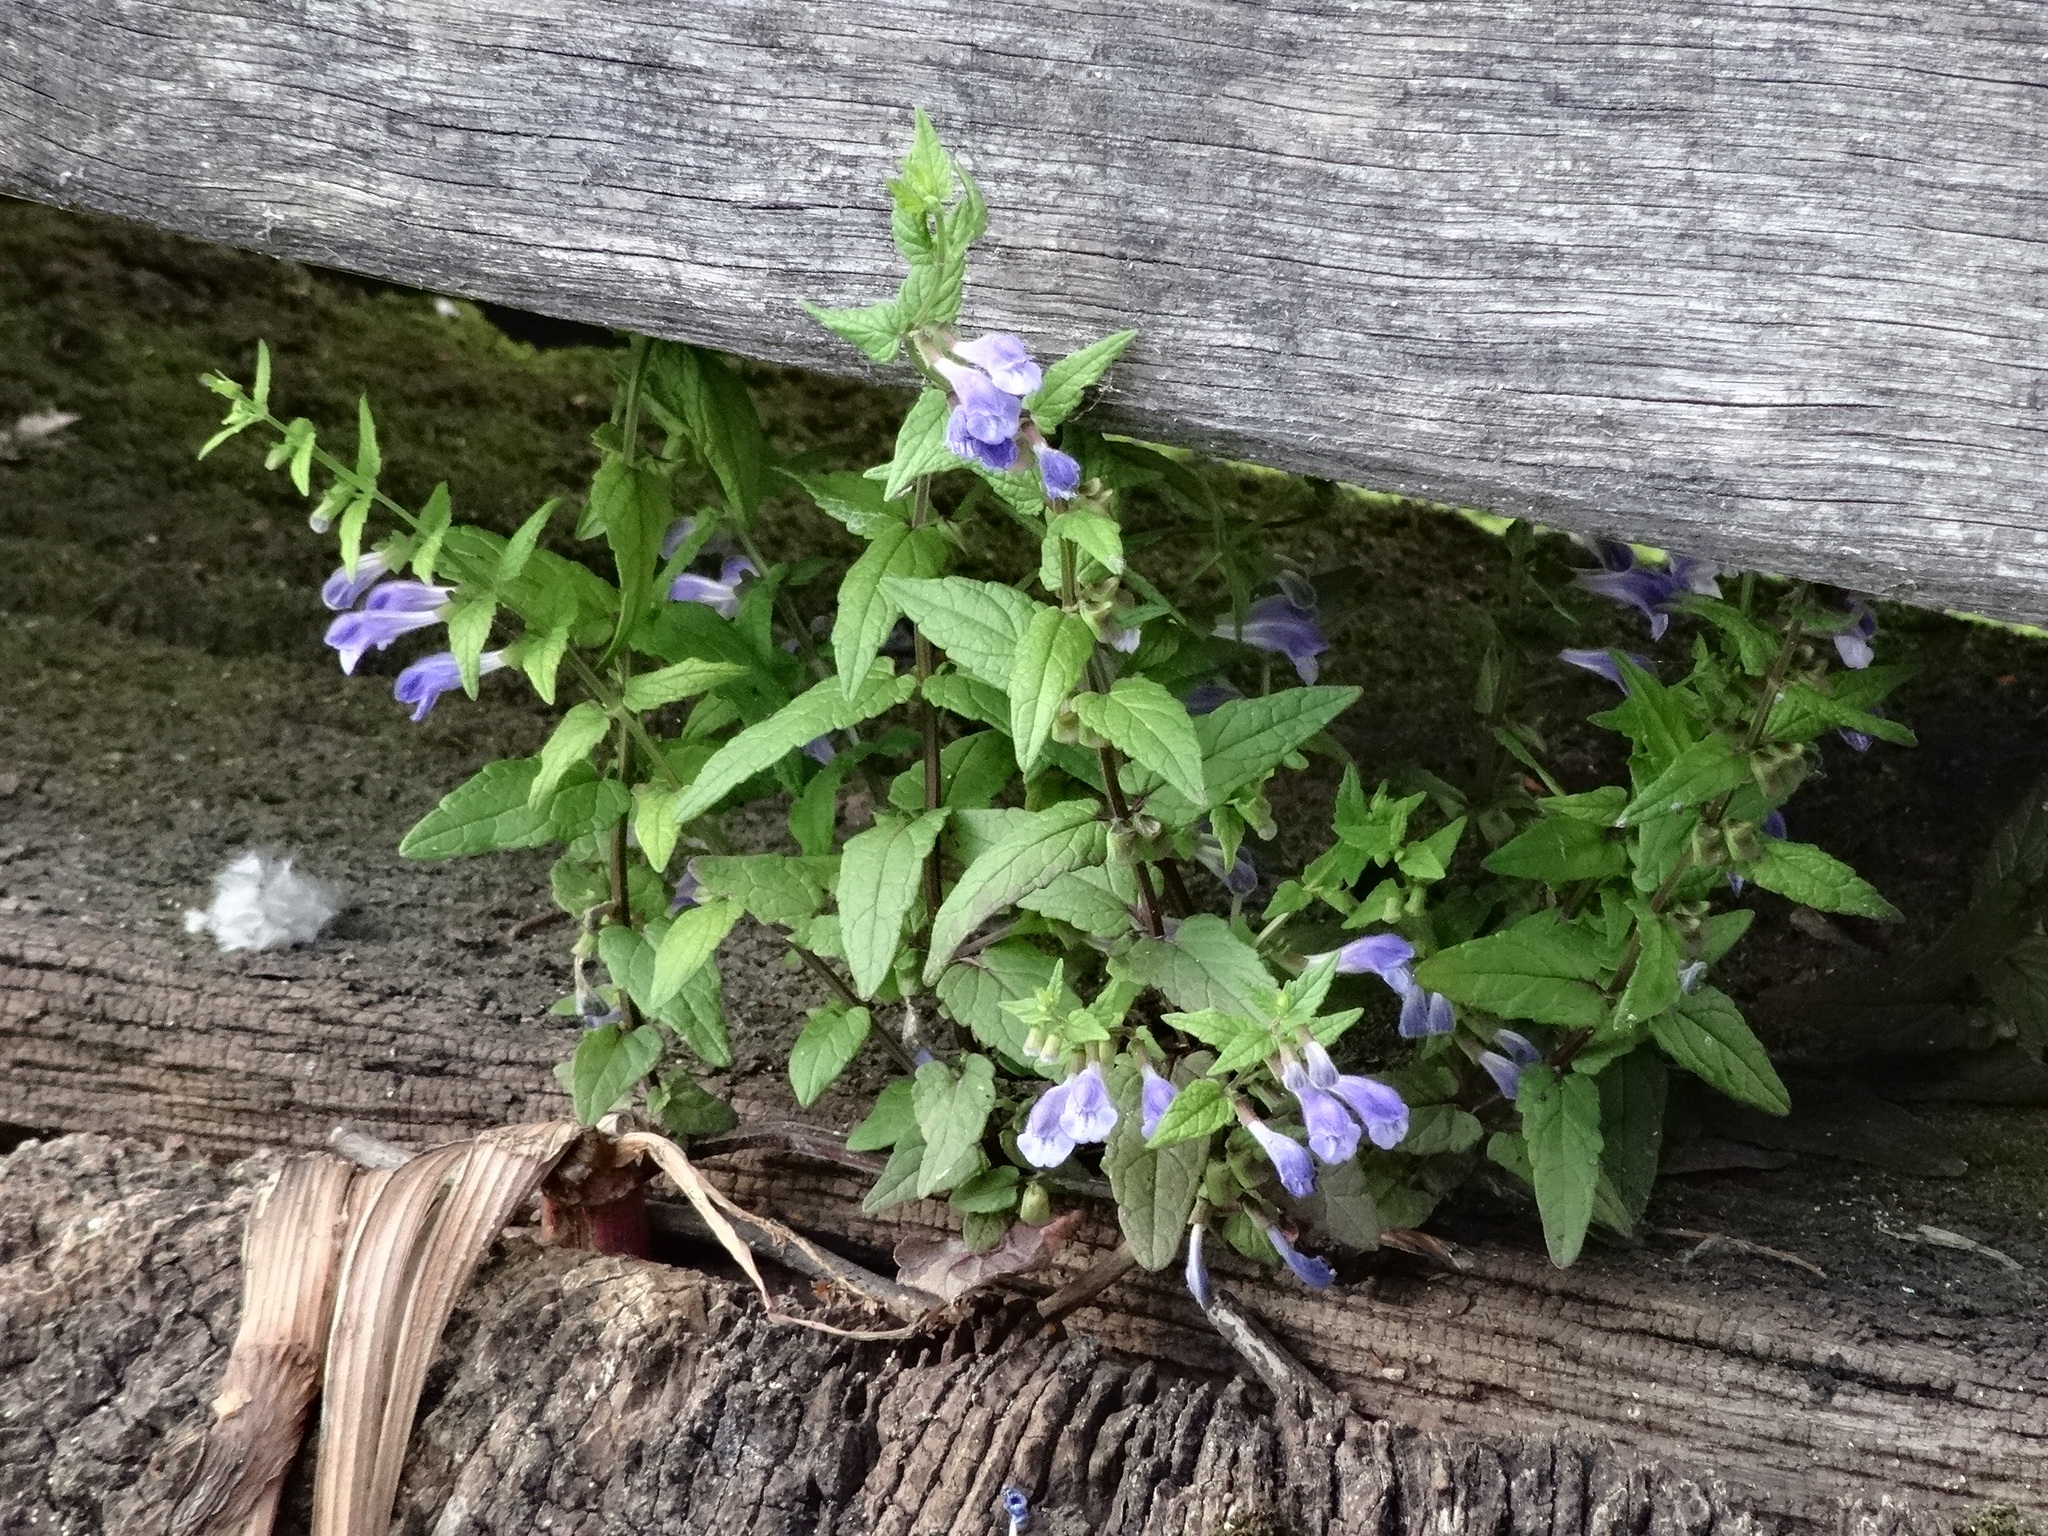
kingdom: Plantae
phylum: Tracheophyta
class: Magnoliopsida
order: Lamiales
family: Lamiaceae
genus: Scutellaria
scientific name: Scutellaria galericulata
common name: Skullcap
